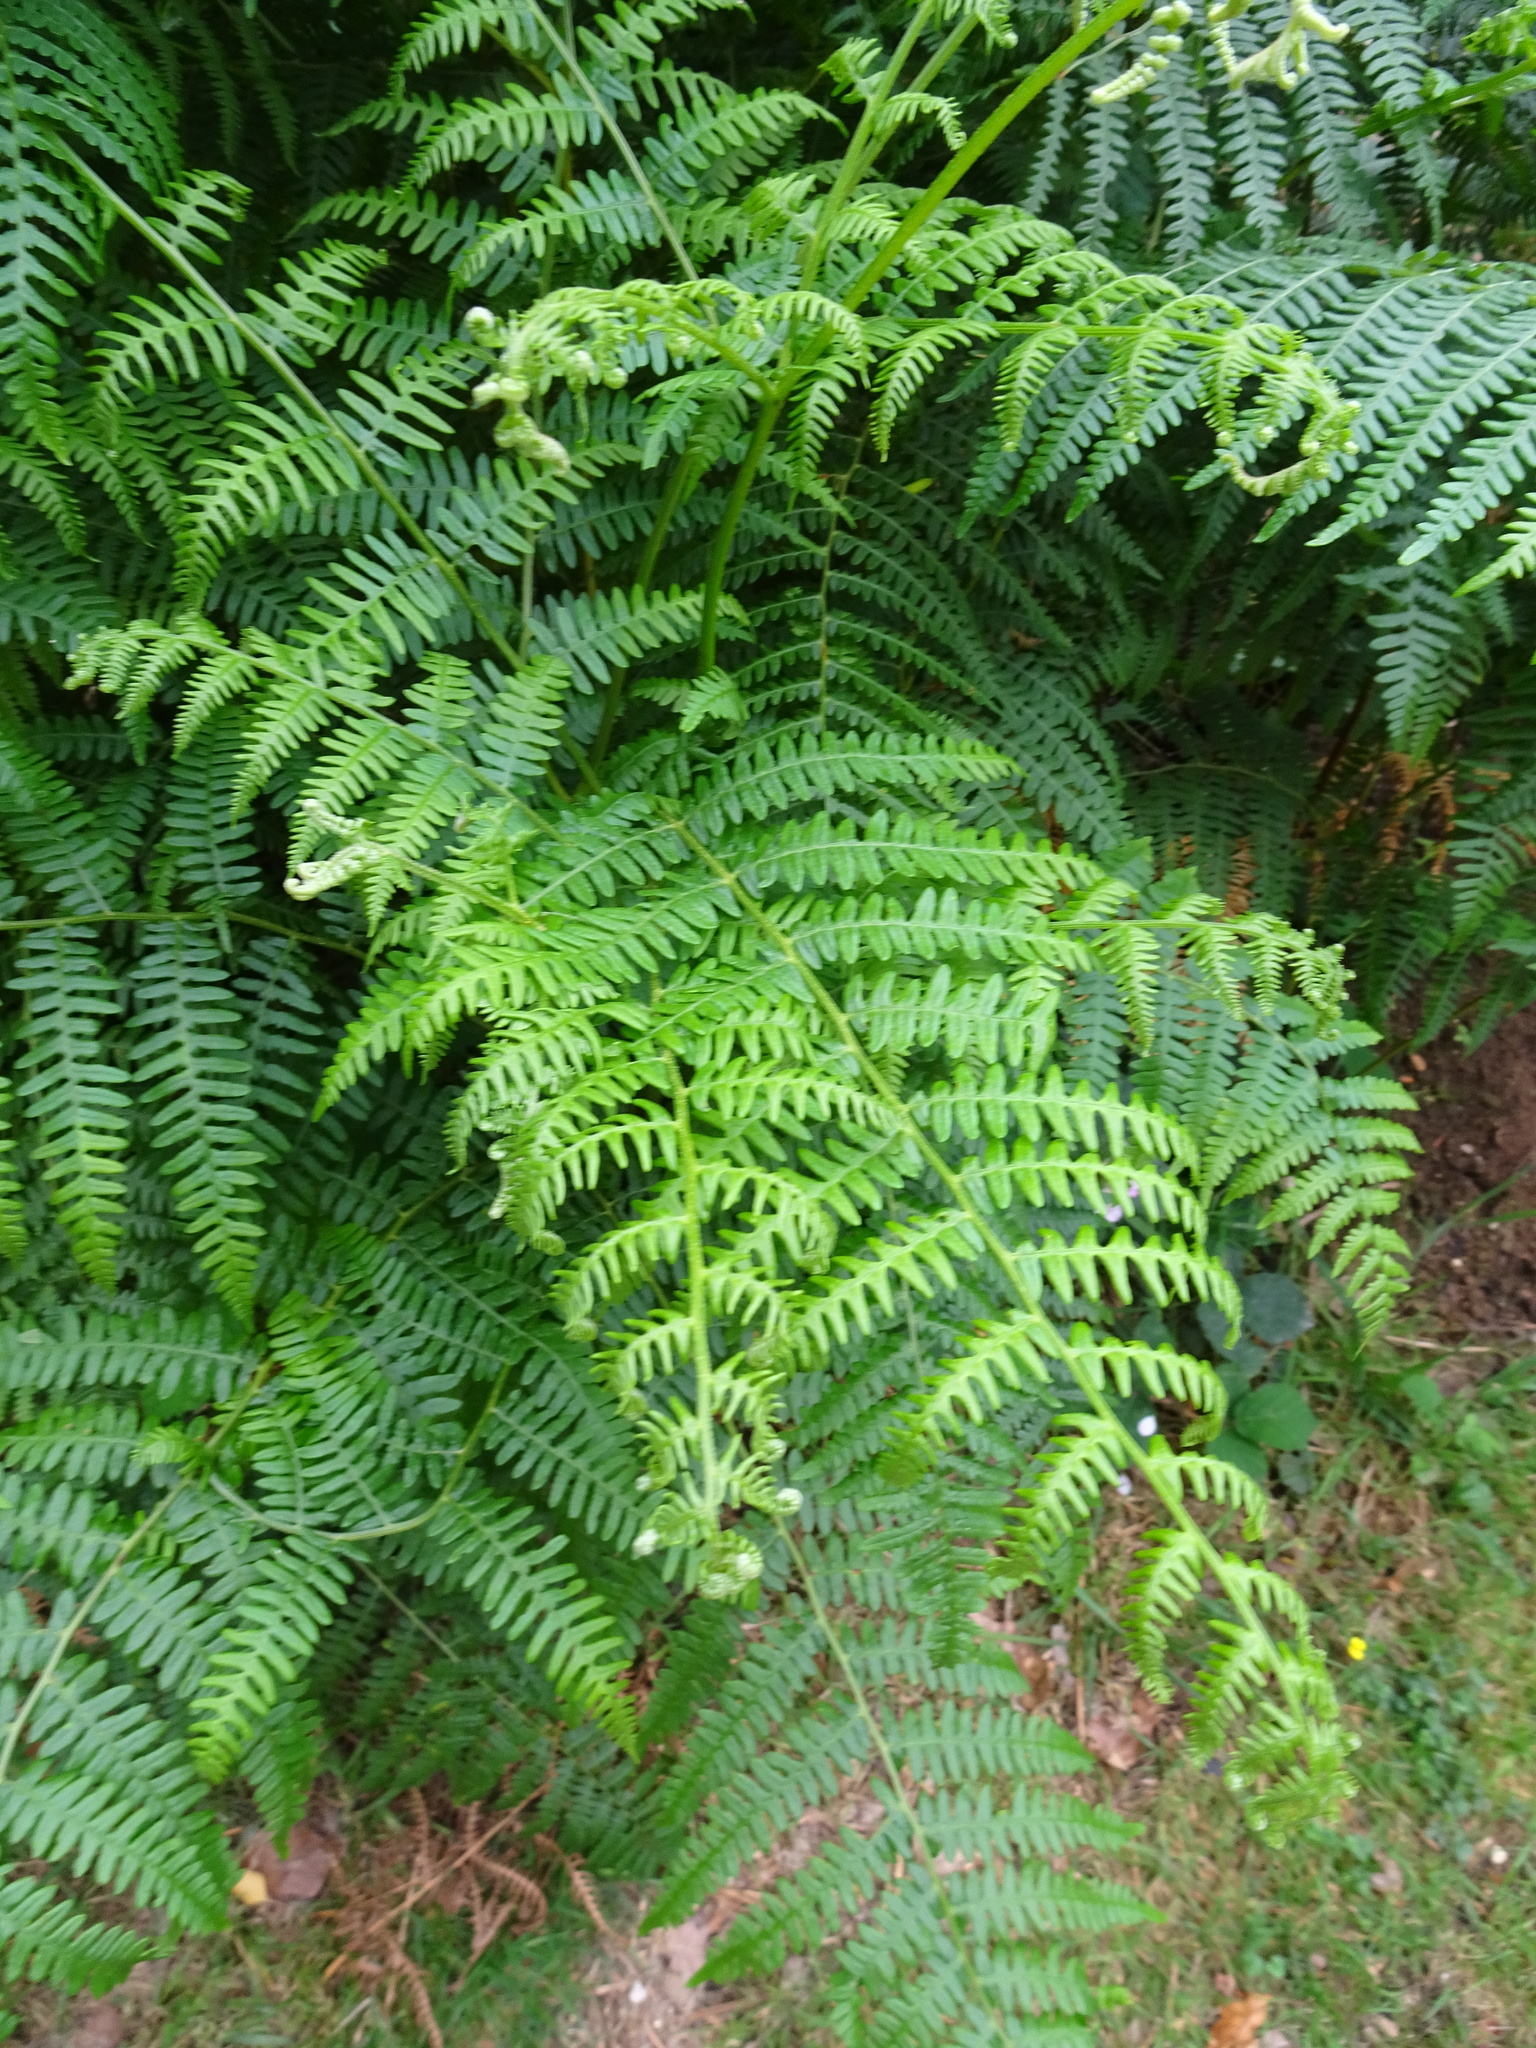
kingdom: Plantae
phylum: Tracheophyta
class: Polypodiopsida
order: Polypodiales
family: Dennstaedtiaceae
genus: Pteridium
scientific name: Pteridium aquilinum
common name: Bracken
